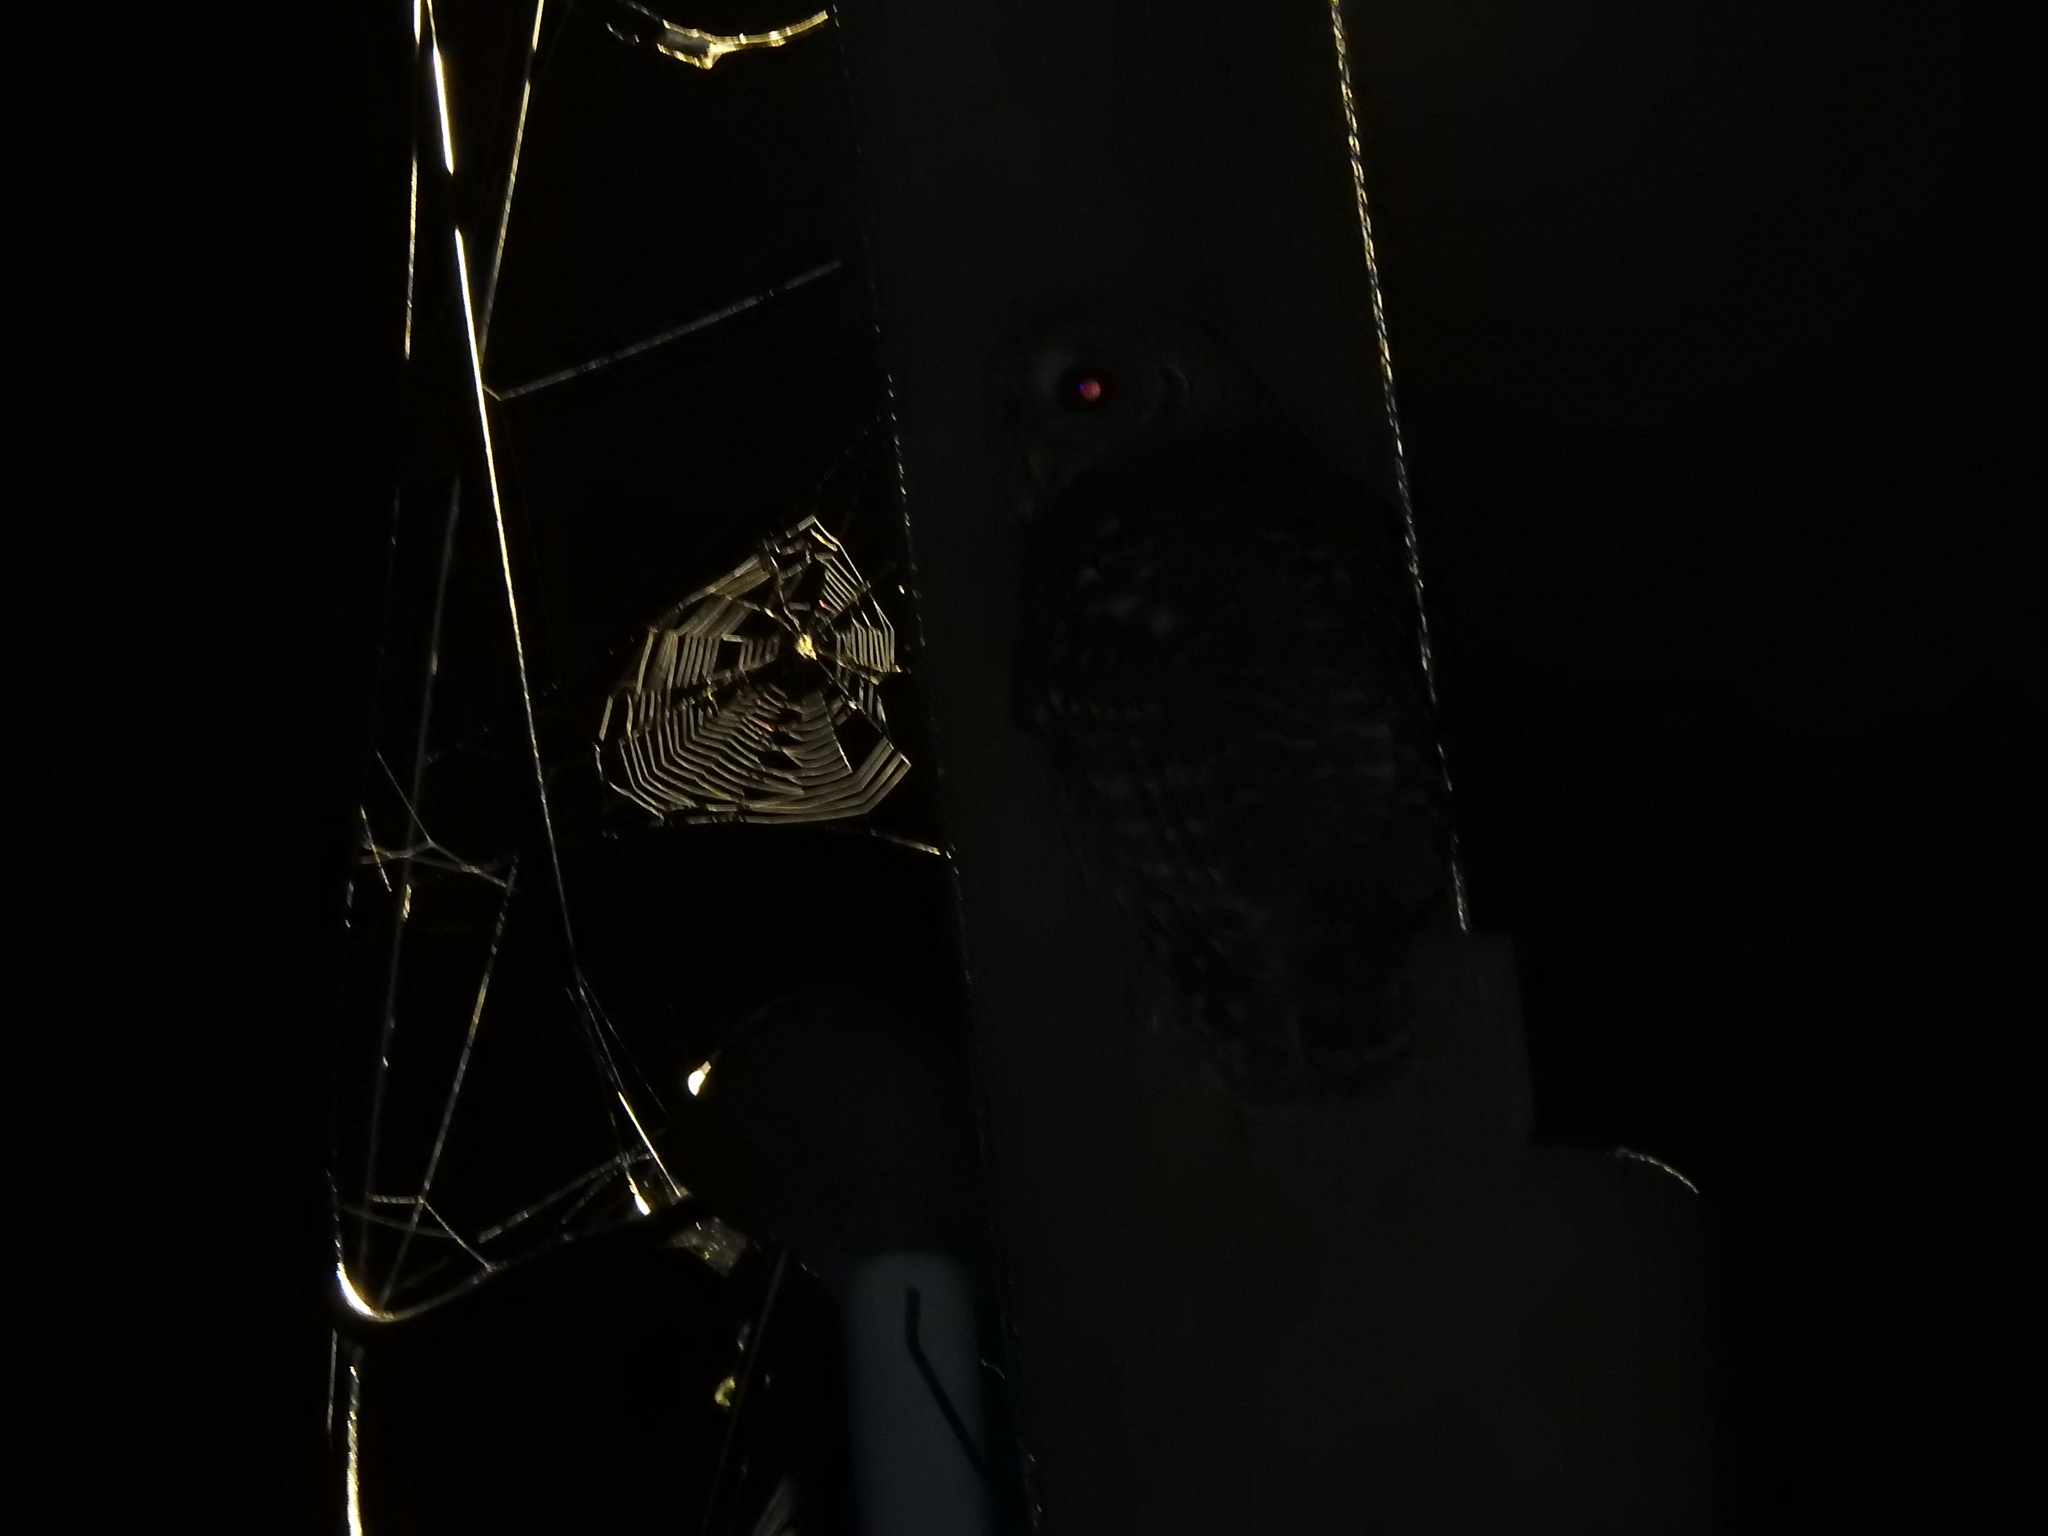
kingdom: Animalia
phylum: Chordata
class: Aves
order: Strigiformes
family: Strigidae
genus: Strix
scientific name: Strix varia
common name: Barred owl
